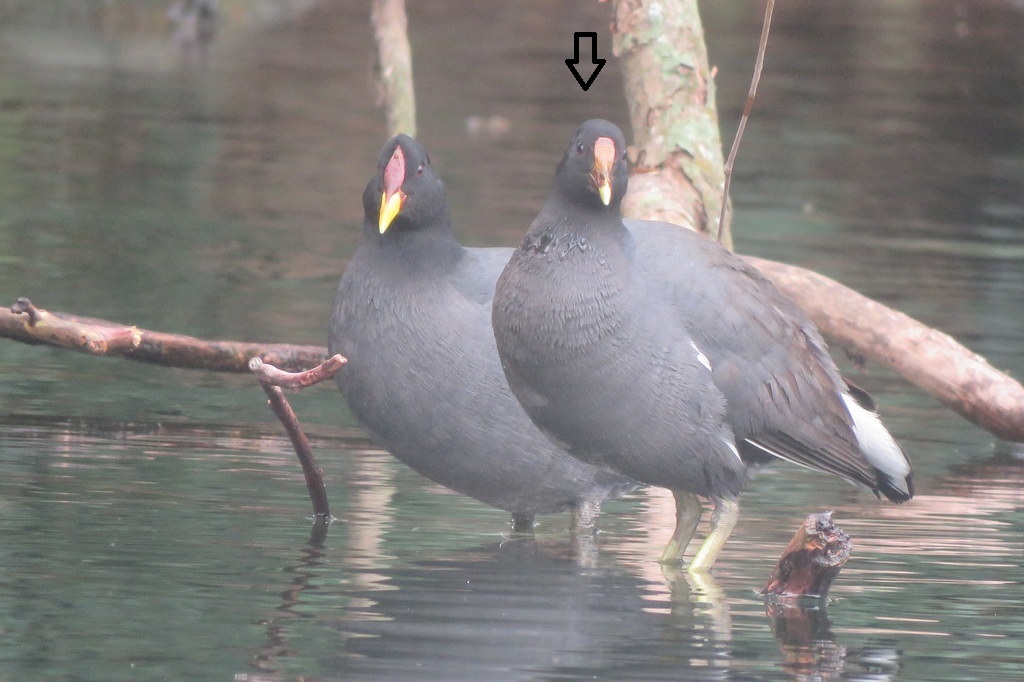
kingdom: Animalia
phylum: Chordata
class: Aves
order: Gruiformes
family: Rallidae
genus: Gallinula
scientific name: Gallinula chloropus
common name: Common moorhen
